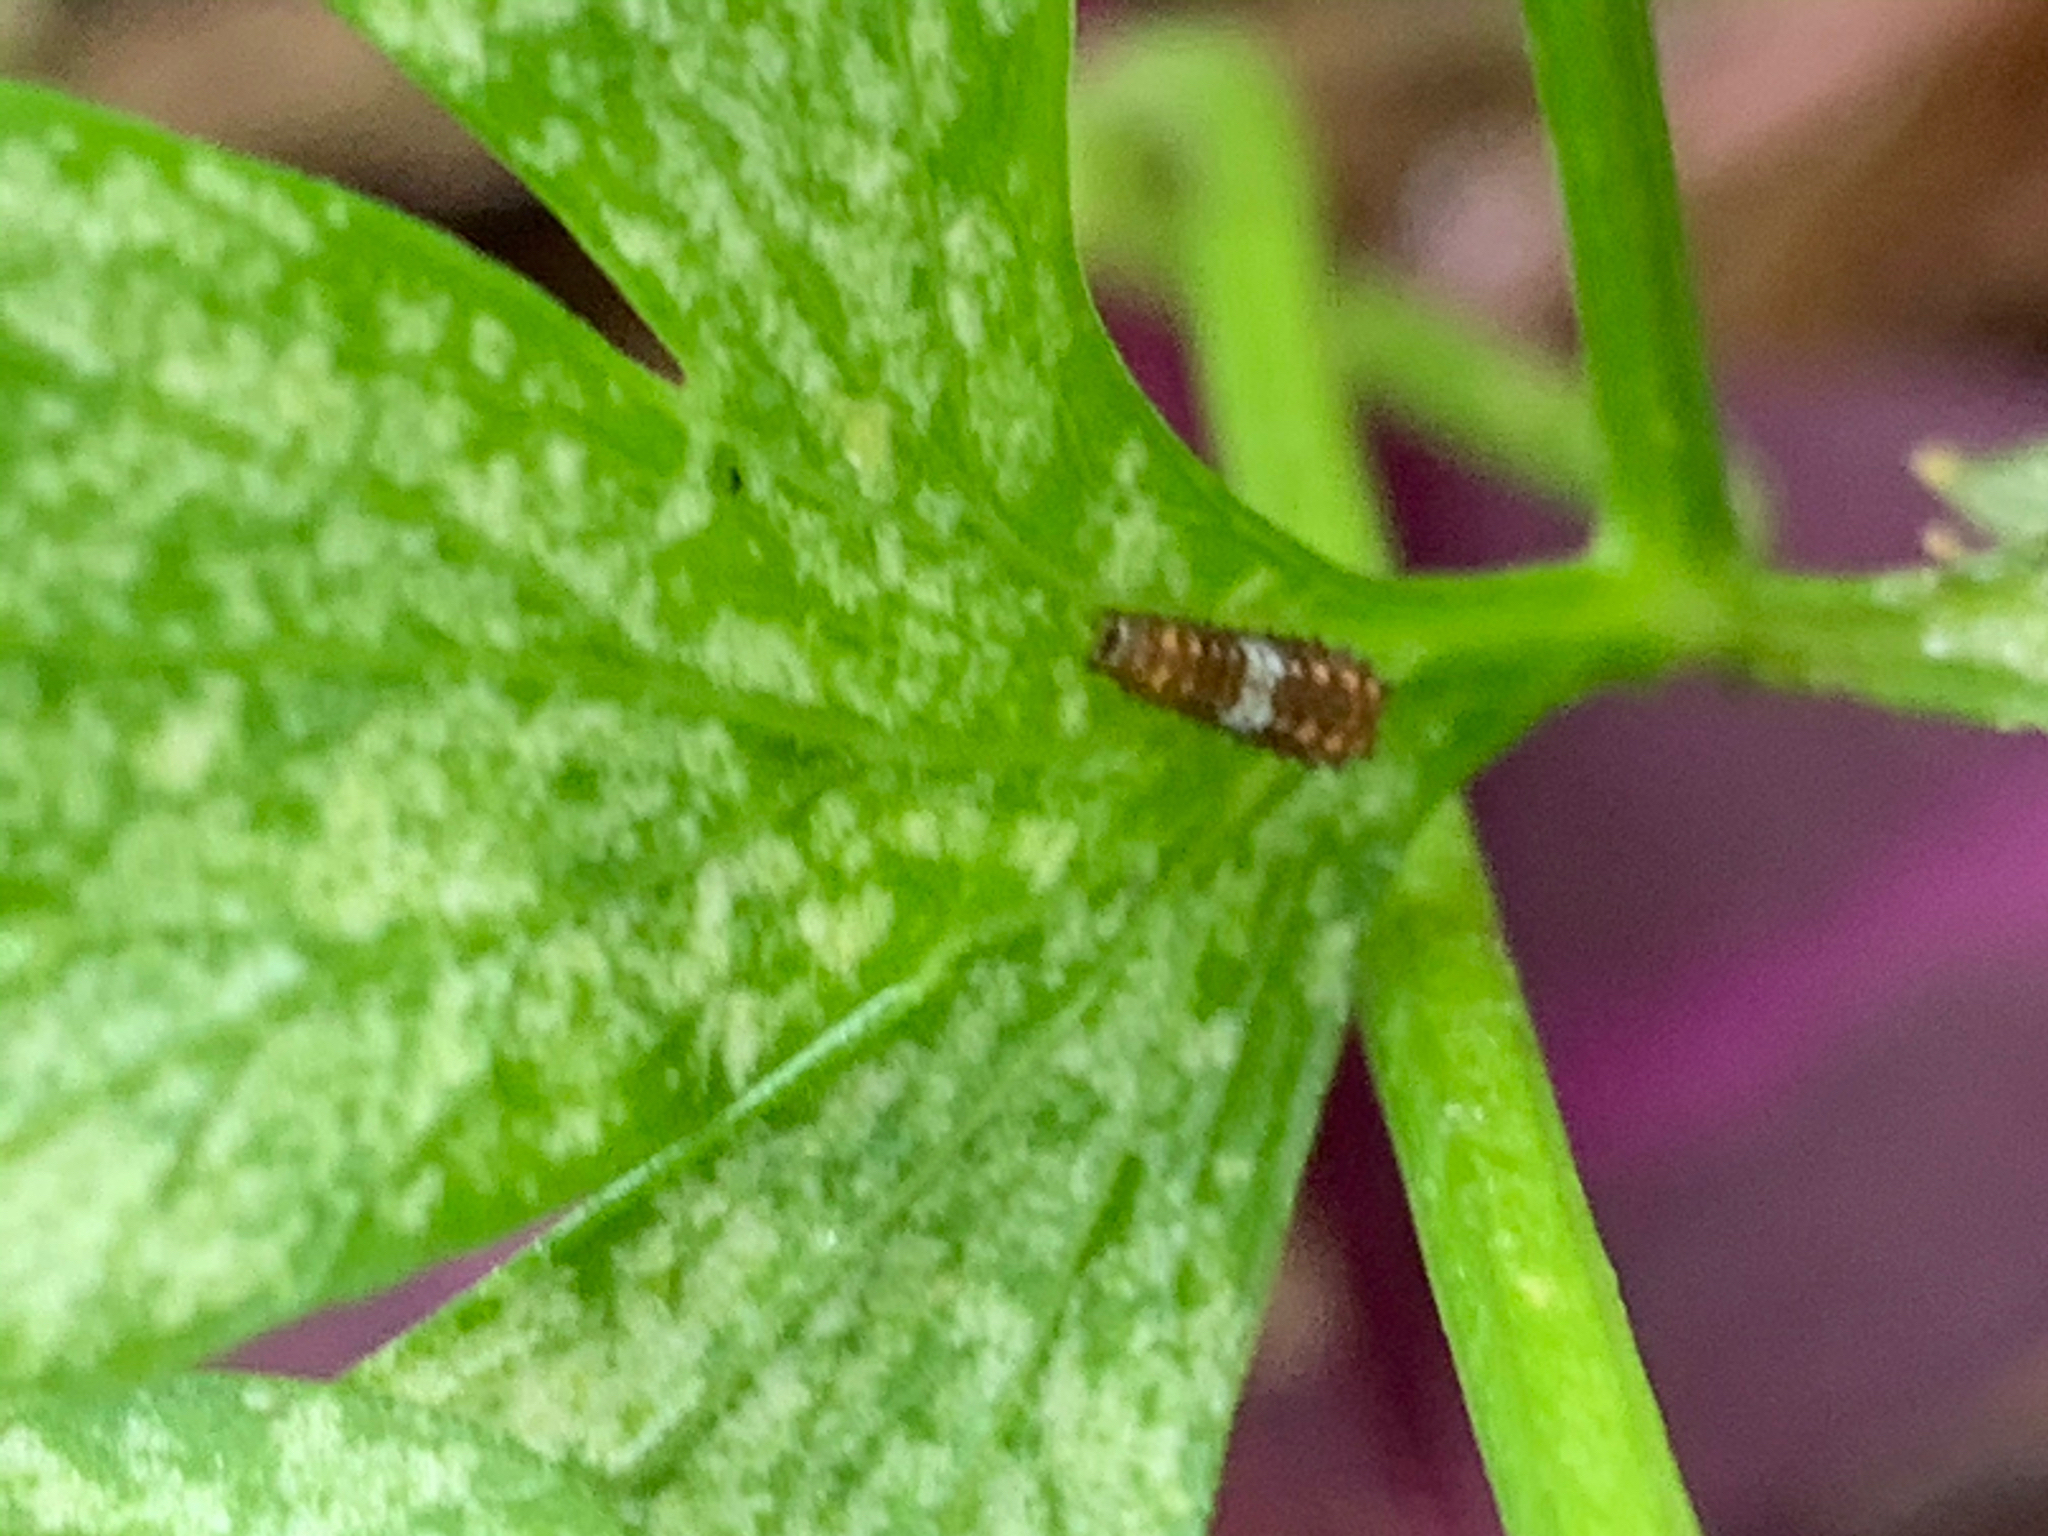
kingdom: Animalia
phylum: Arthropoda
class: Insecta
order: Lepidoptera
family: Papilionidae
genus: Papilio
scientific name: Papilio polyxenes
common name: Black swallowtail
